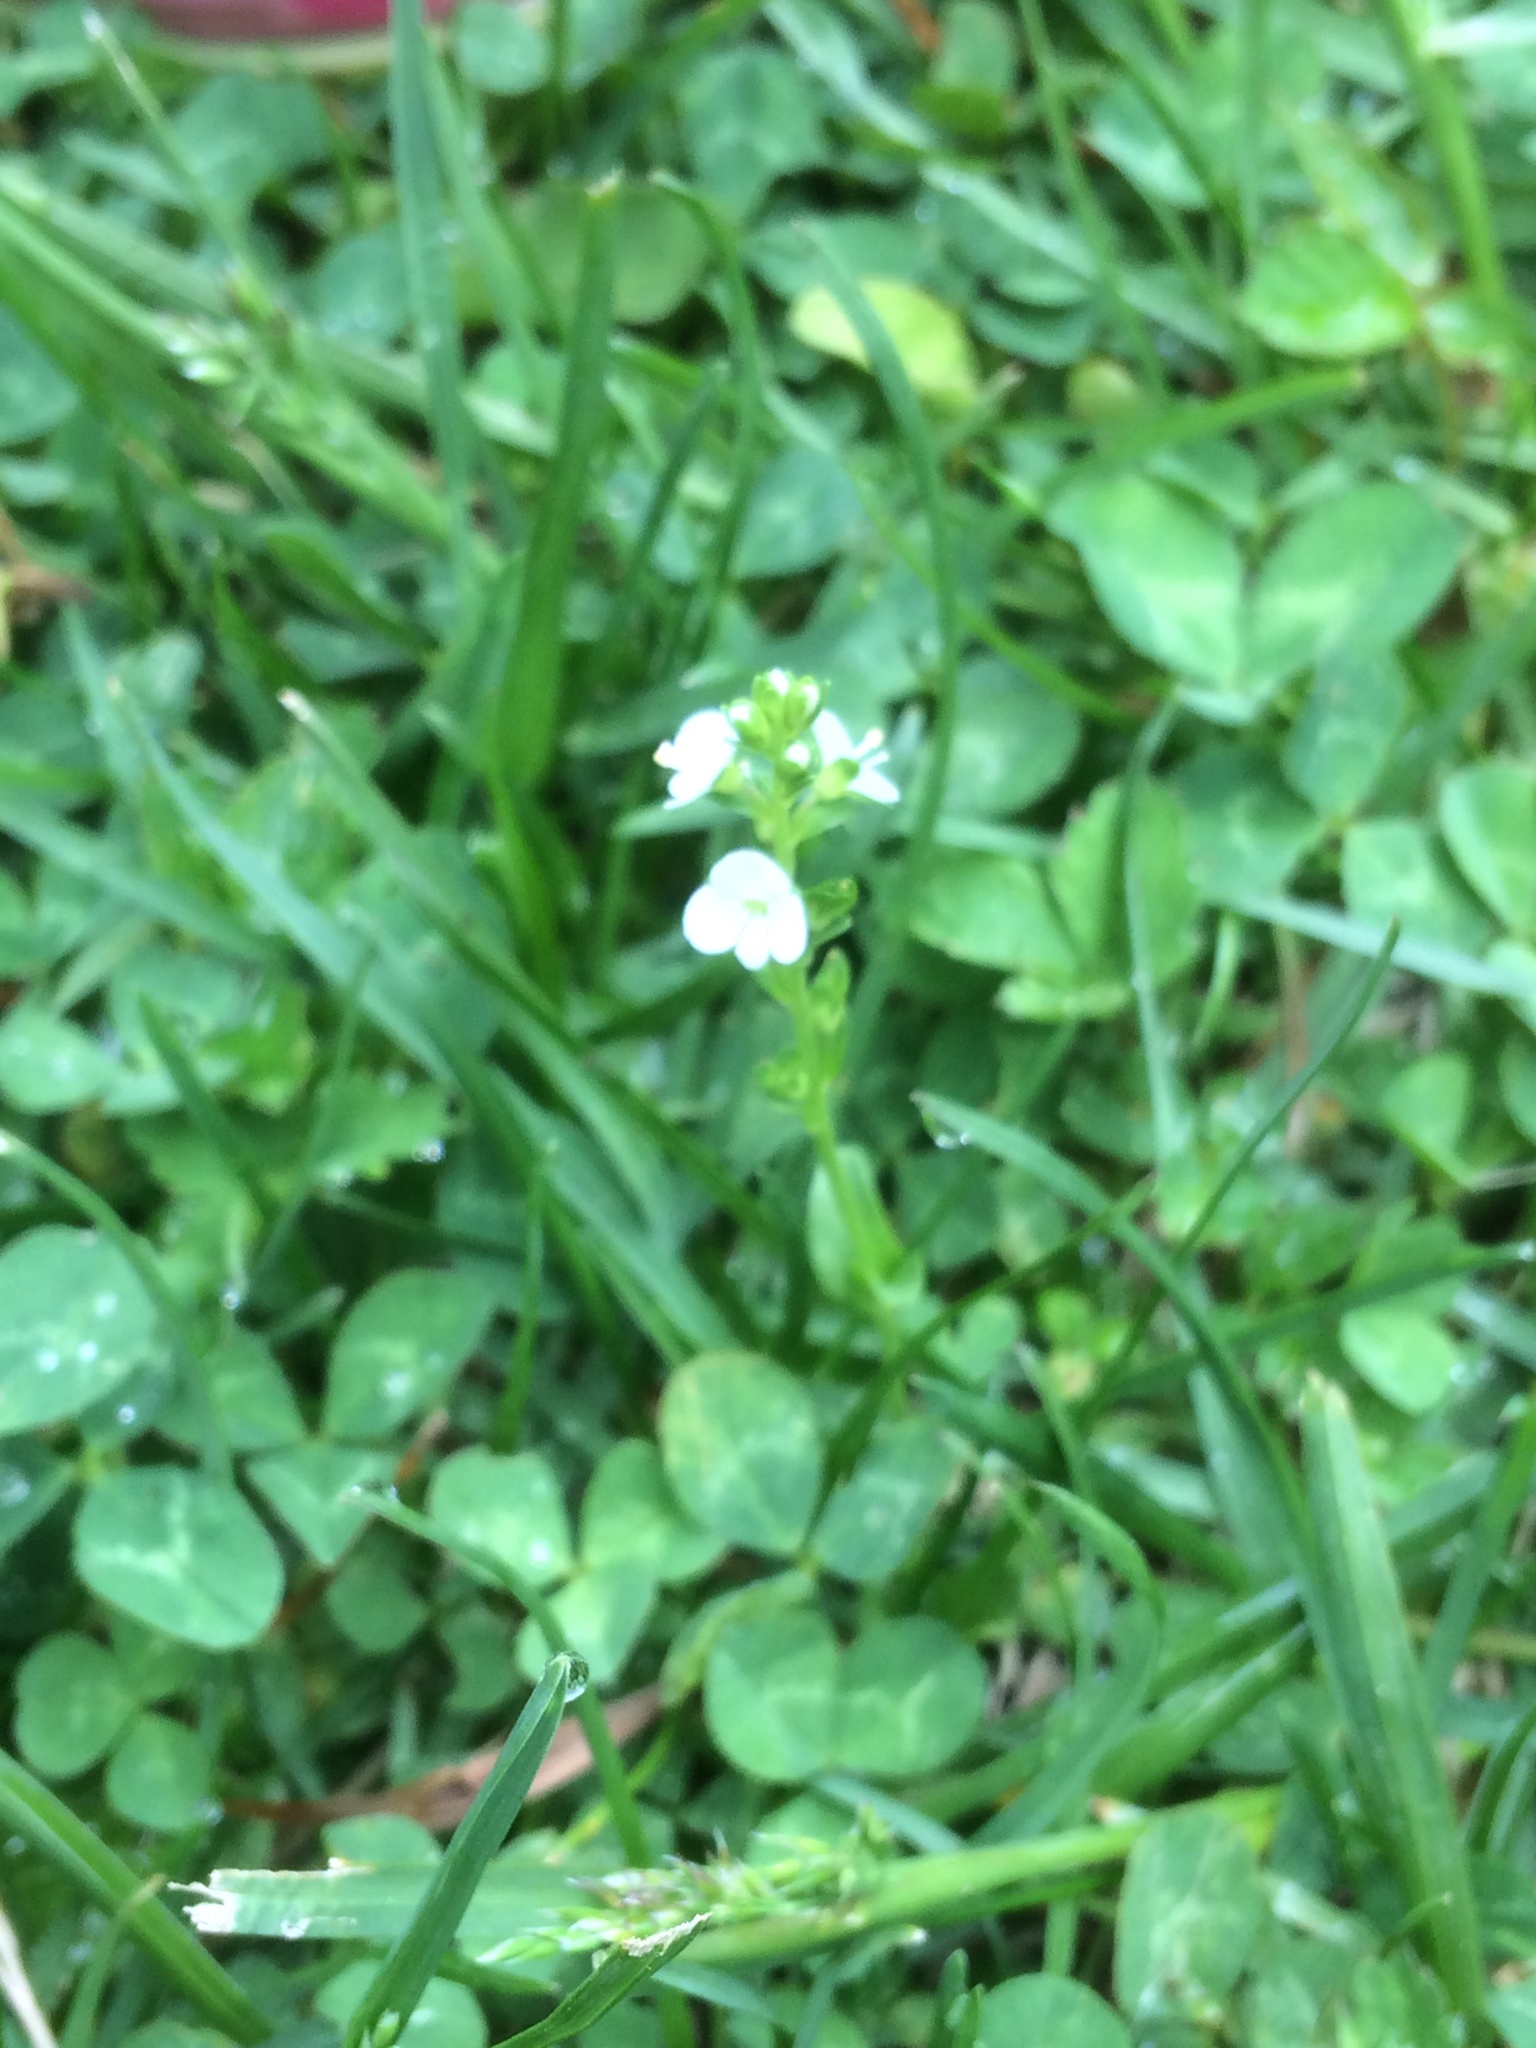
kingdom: Plantae
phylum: Tracheophyta
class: Magnoliopsida
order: Lamiales
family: Plantaginaceae
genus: Veronica
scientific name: Veronica serpyllifolia
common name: Thyme-leaved speedwell
